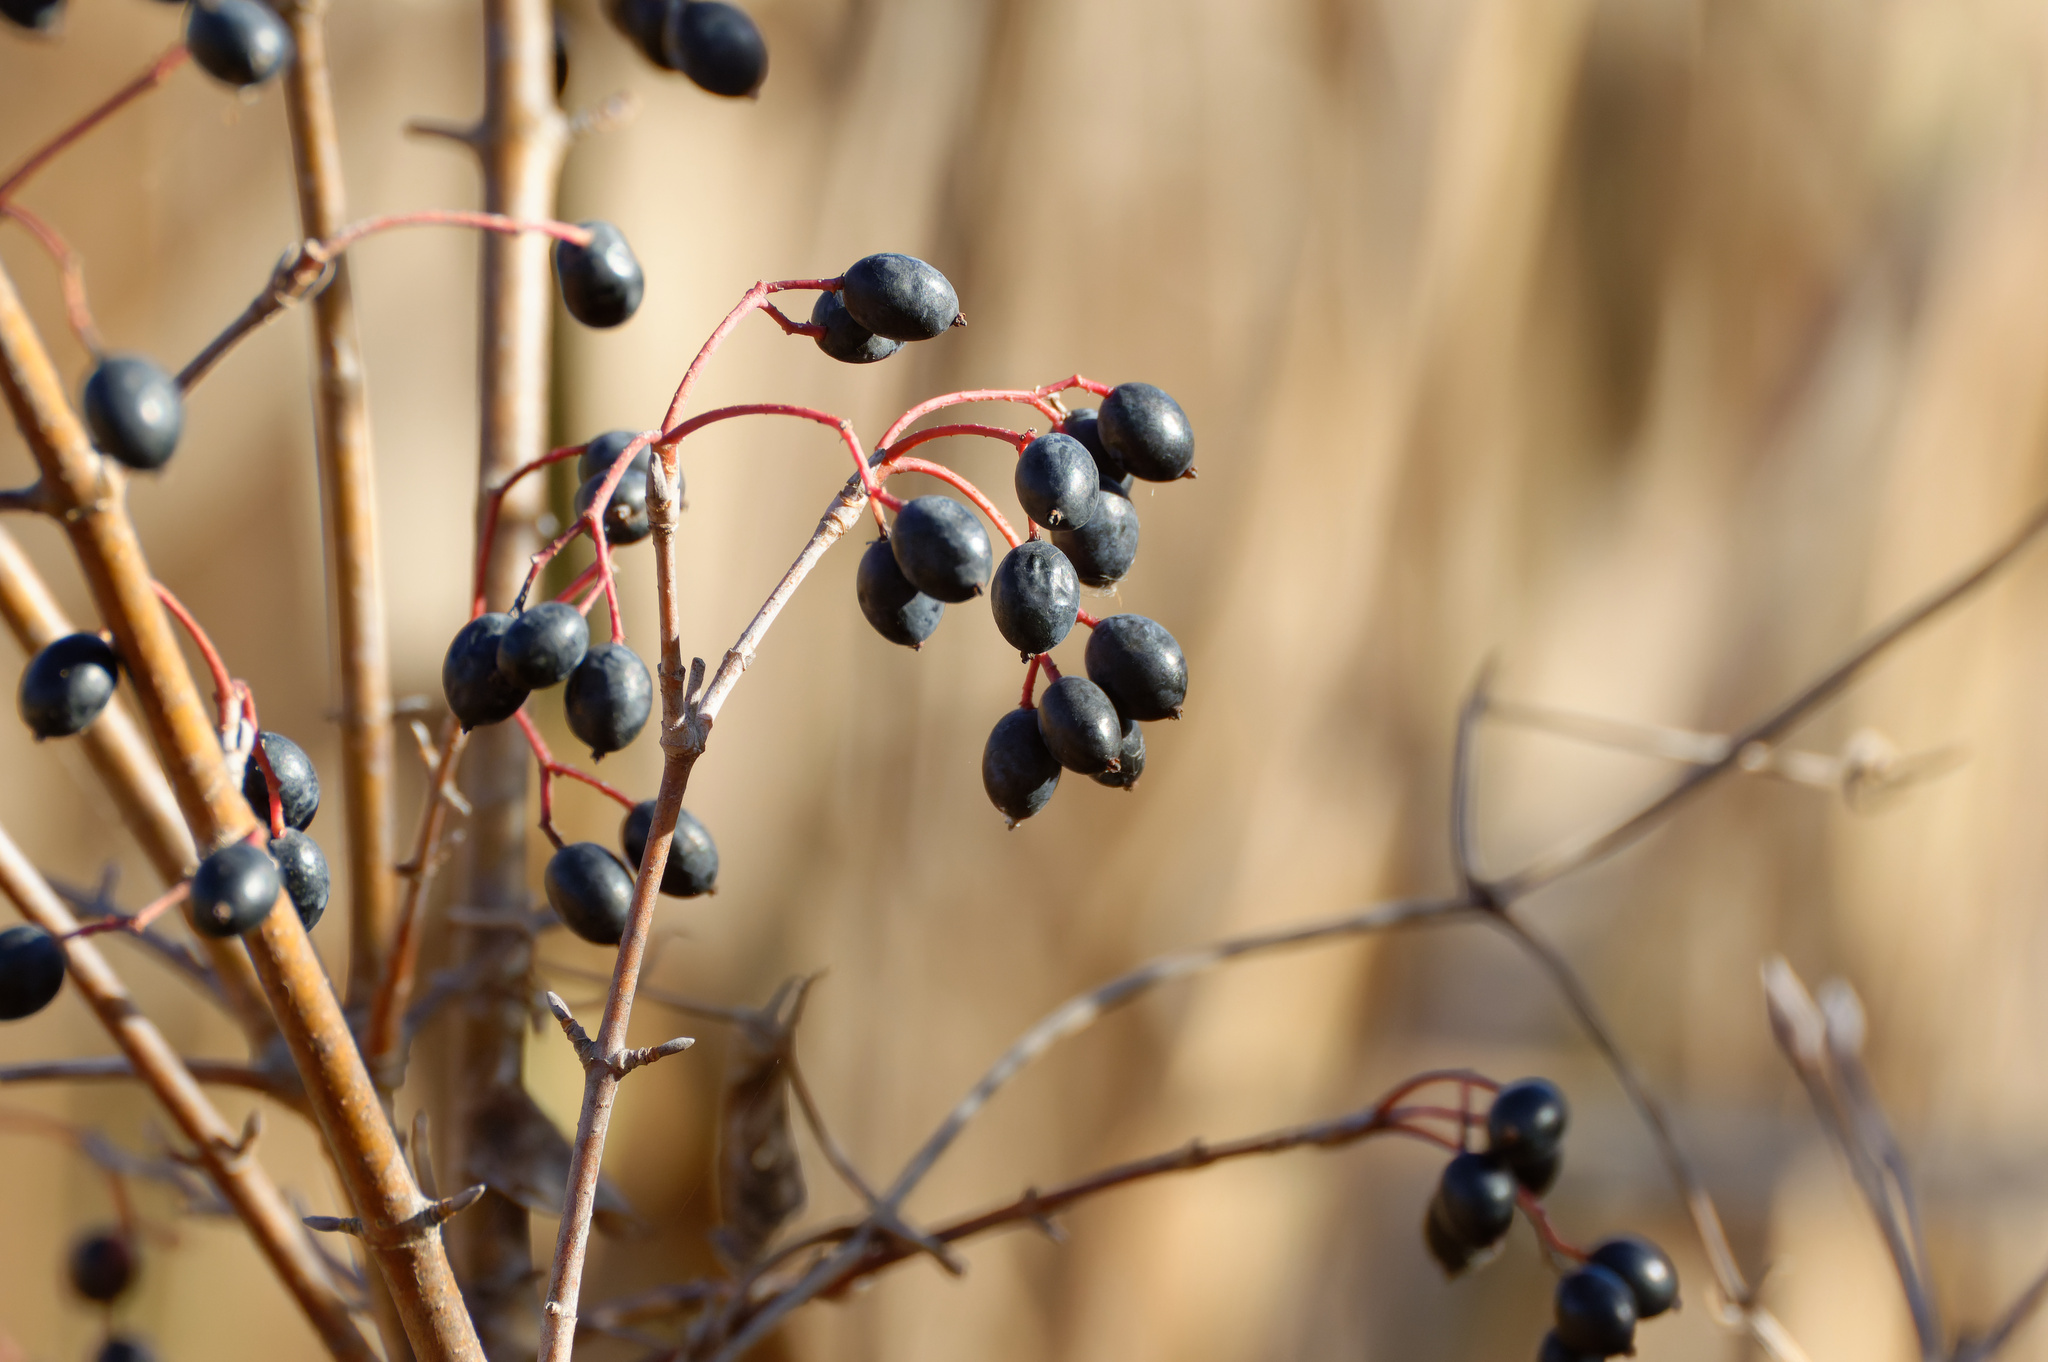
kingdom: Plantae
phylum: Tracheophyta
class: Magnoliopsida
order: Dipsacales
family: Viburnaceae
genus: Viburnum
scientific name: Viburnum prunifolium
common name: Black haw
